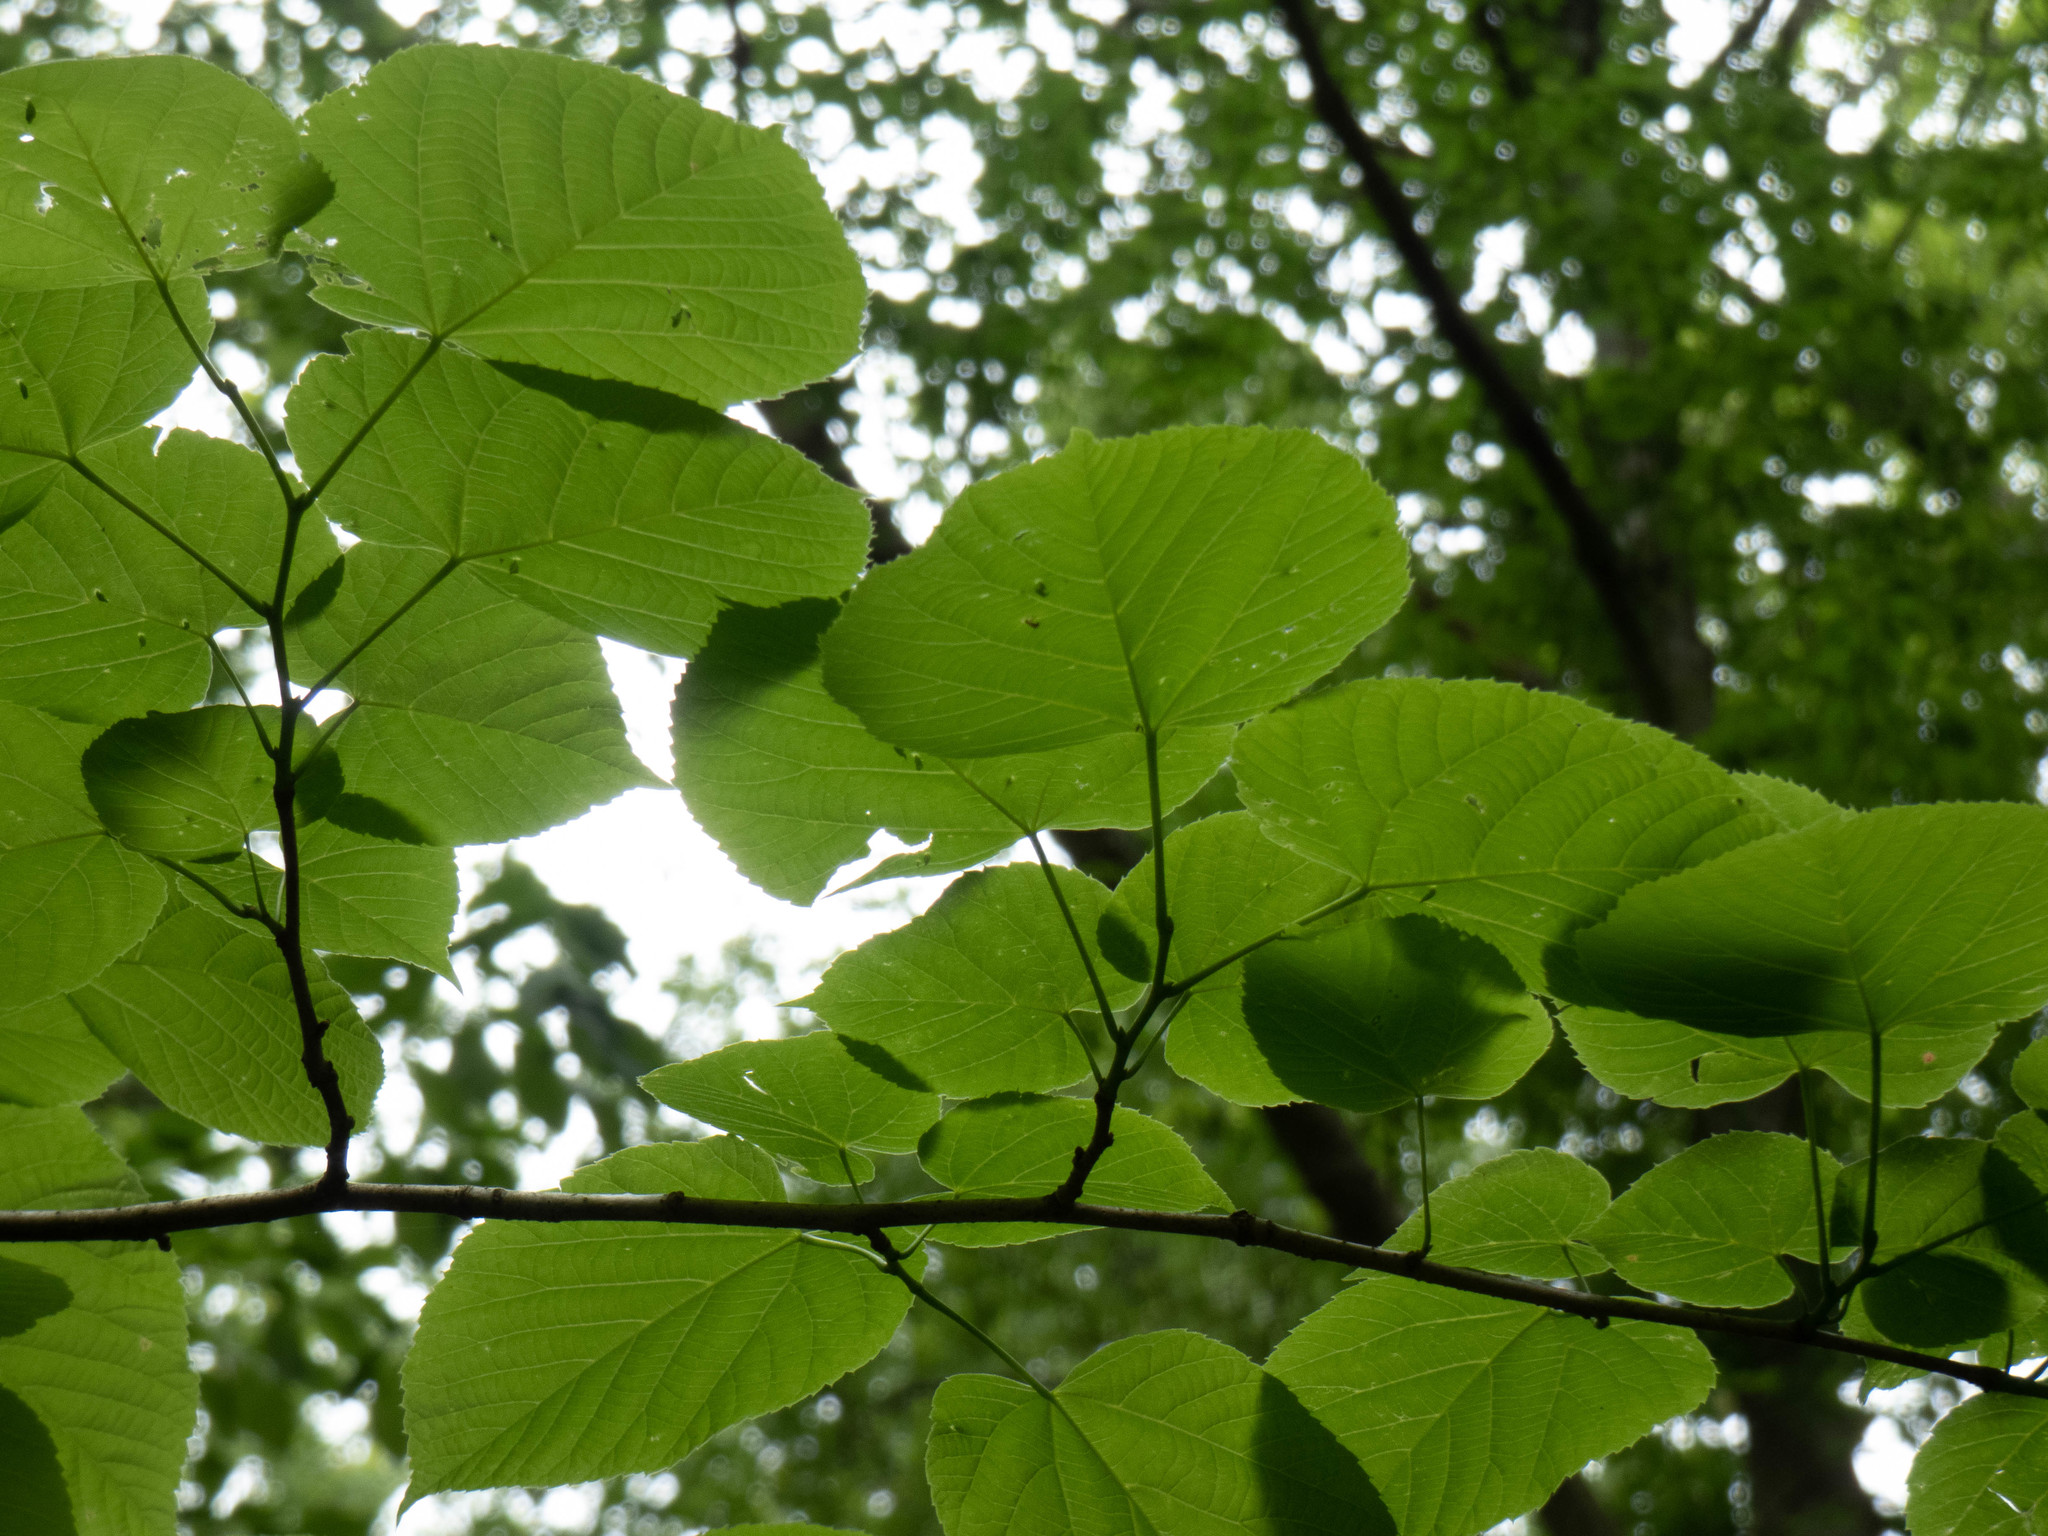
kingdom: Plantae
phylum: Tracheophyta
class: Magnoliopsida
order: Malvales
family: Malvaceae
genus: Tilia
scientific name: Tilia americana
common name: Basswood
